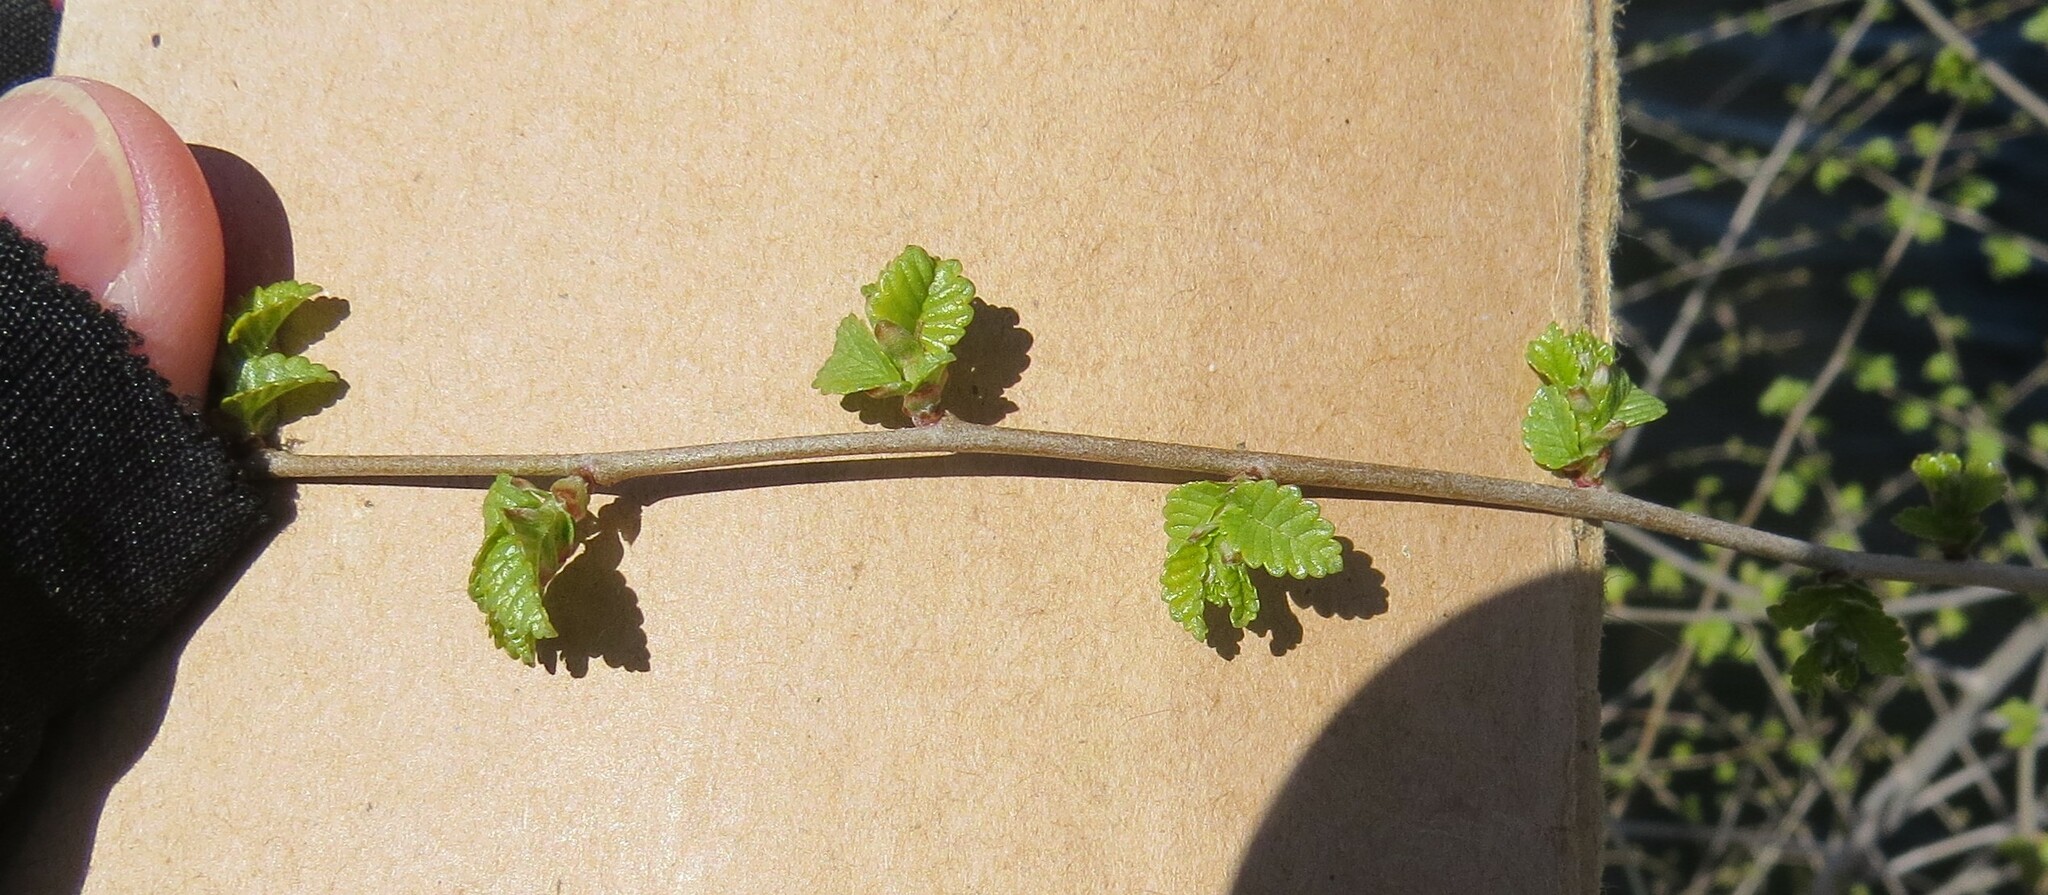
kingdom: Plantae
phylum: Tracheophyta
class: Magnoliopsida
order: Rosales
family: Ulmaceae
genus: Ulmus
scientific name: Ulmus pumila
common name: Siberian elm
